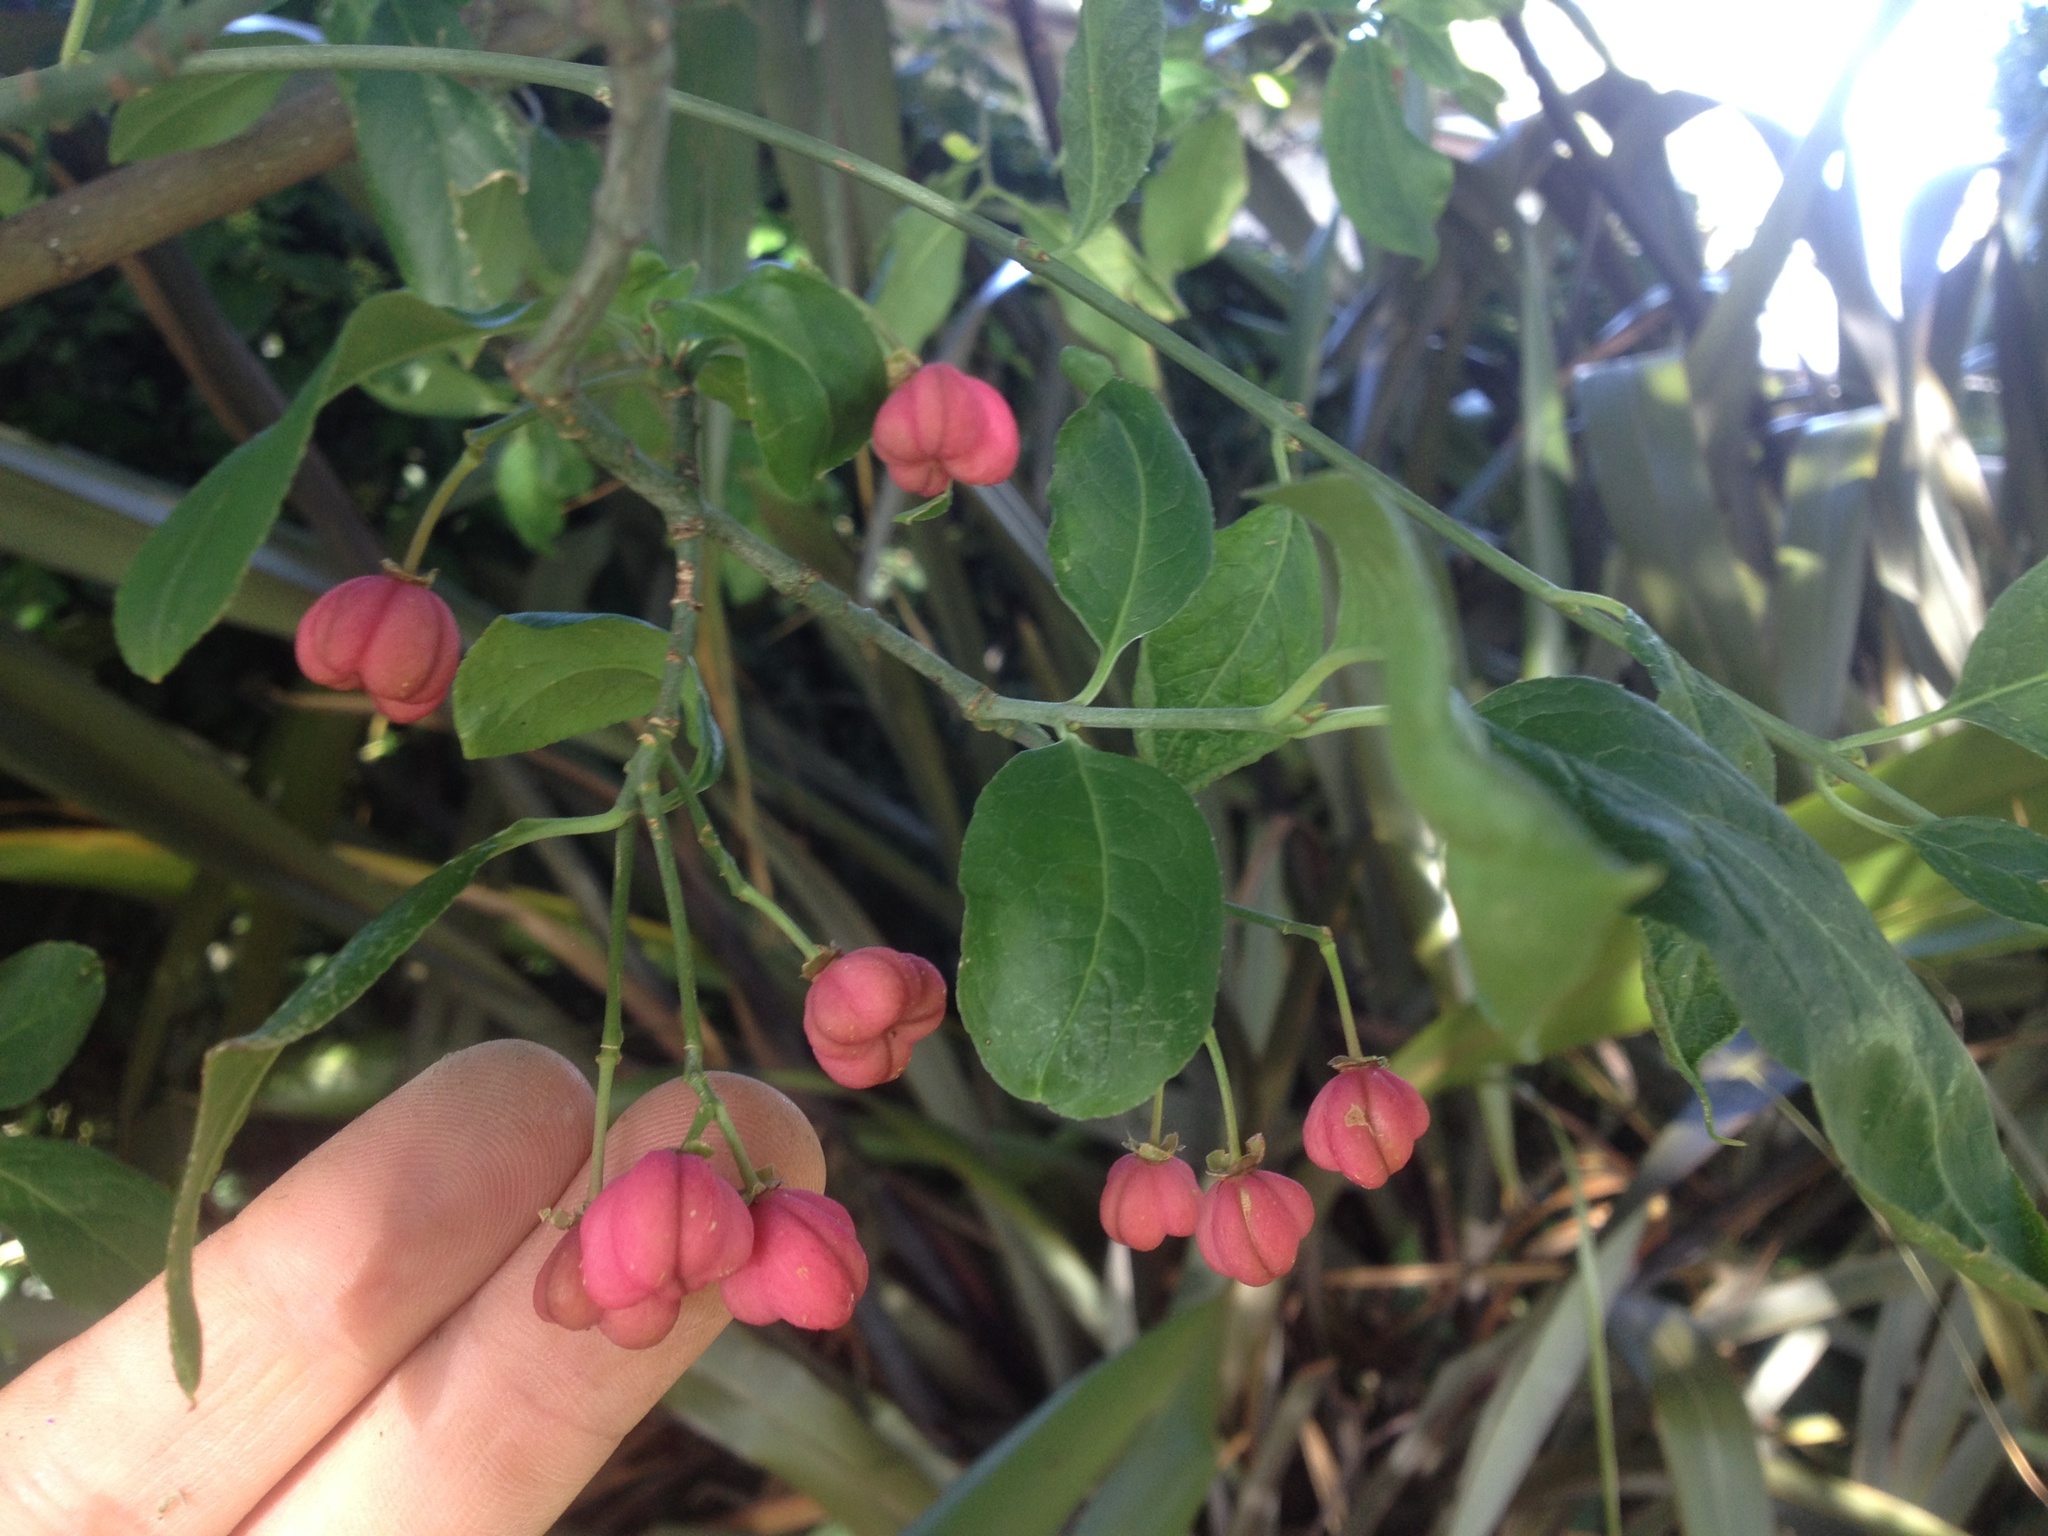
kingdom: Plantae
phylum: Tracheophyta
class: Magnoliopsida
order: Celastrales
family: Celastraceae
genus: Euonymus
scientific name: Euonymus europaeus
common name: Spindle
